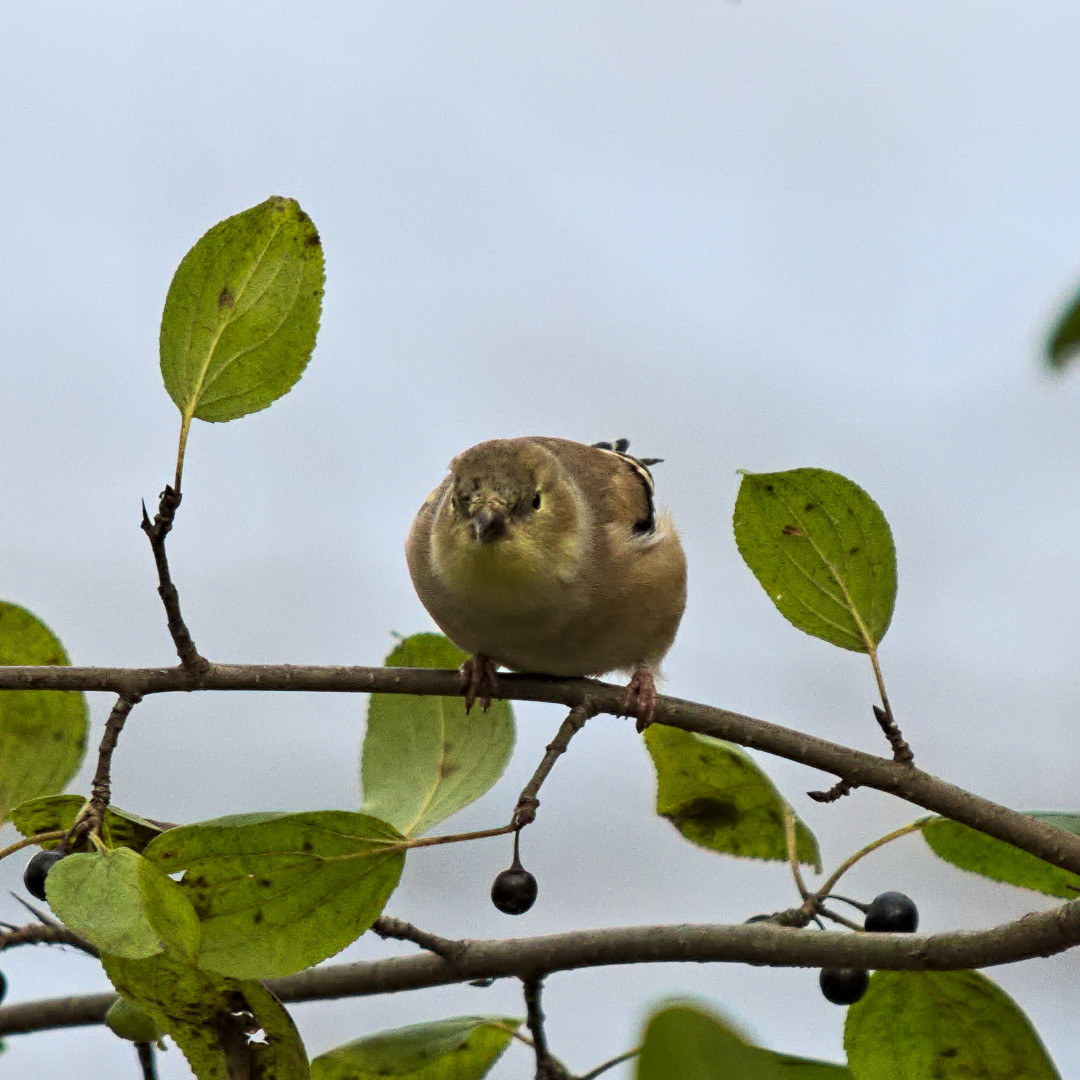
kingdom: Animalia
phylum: Chordata
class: Aves
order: Passeriformes
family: Fringillidae
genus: Spinus
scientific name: Spinus tristis
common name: American goldfinch
